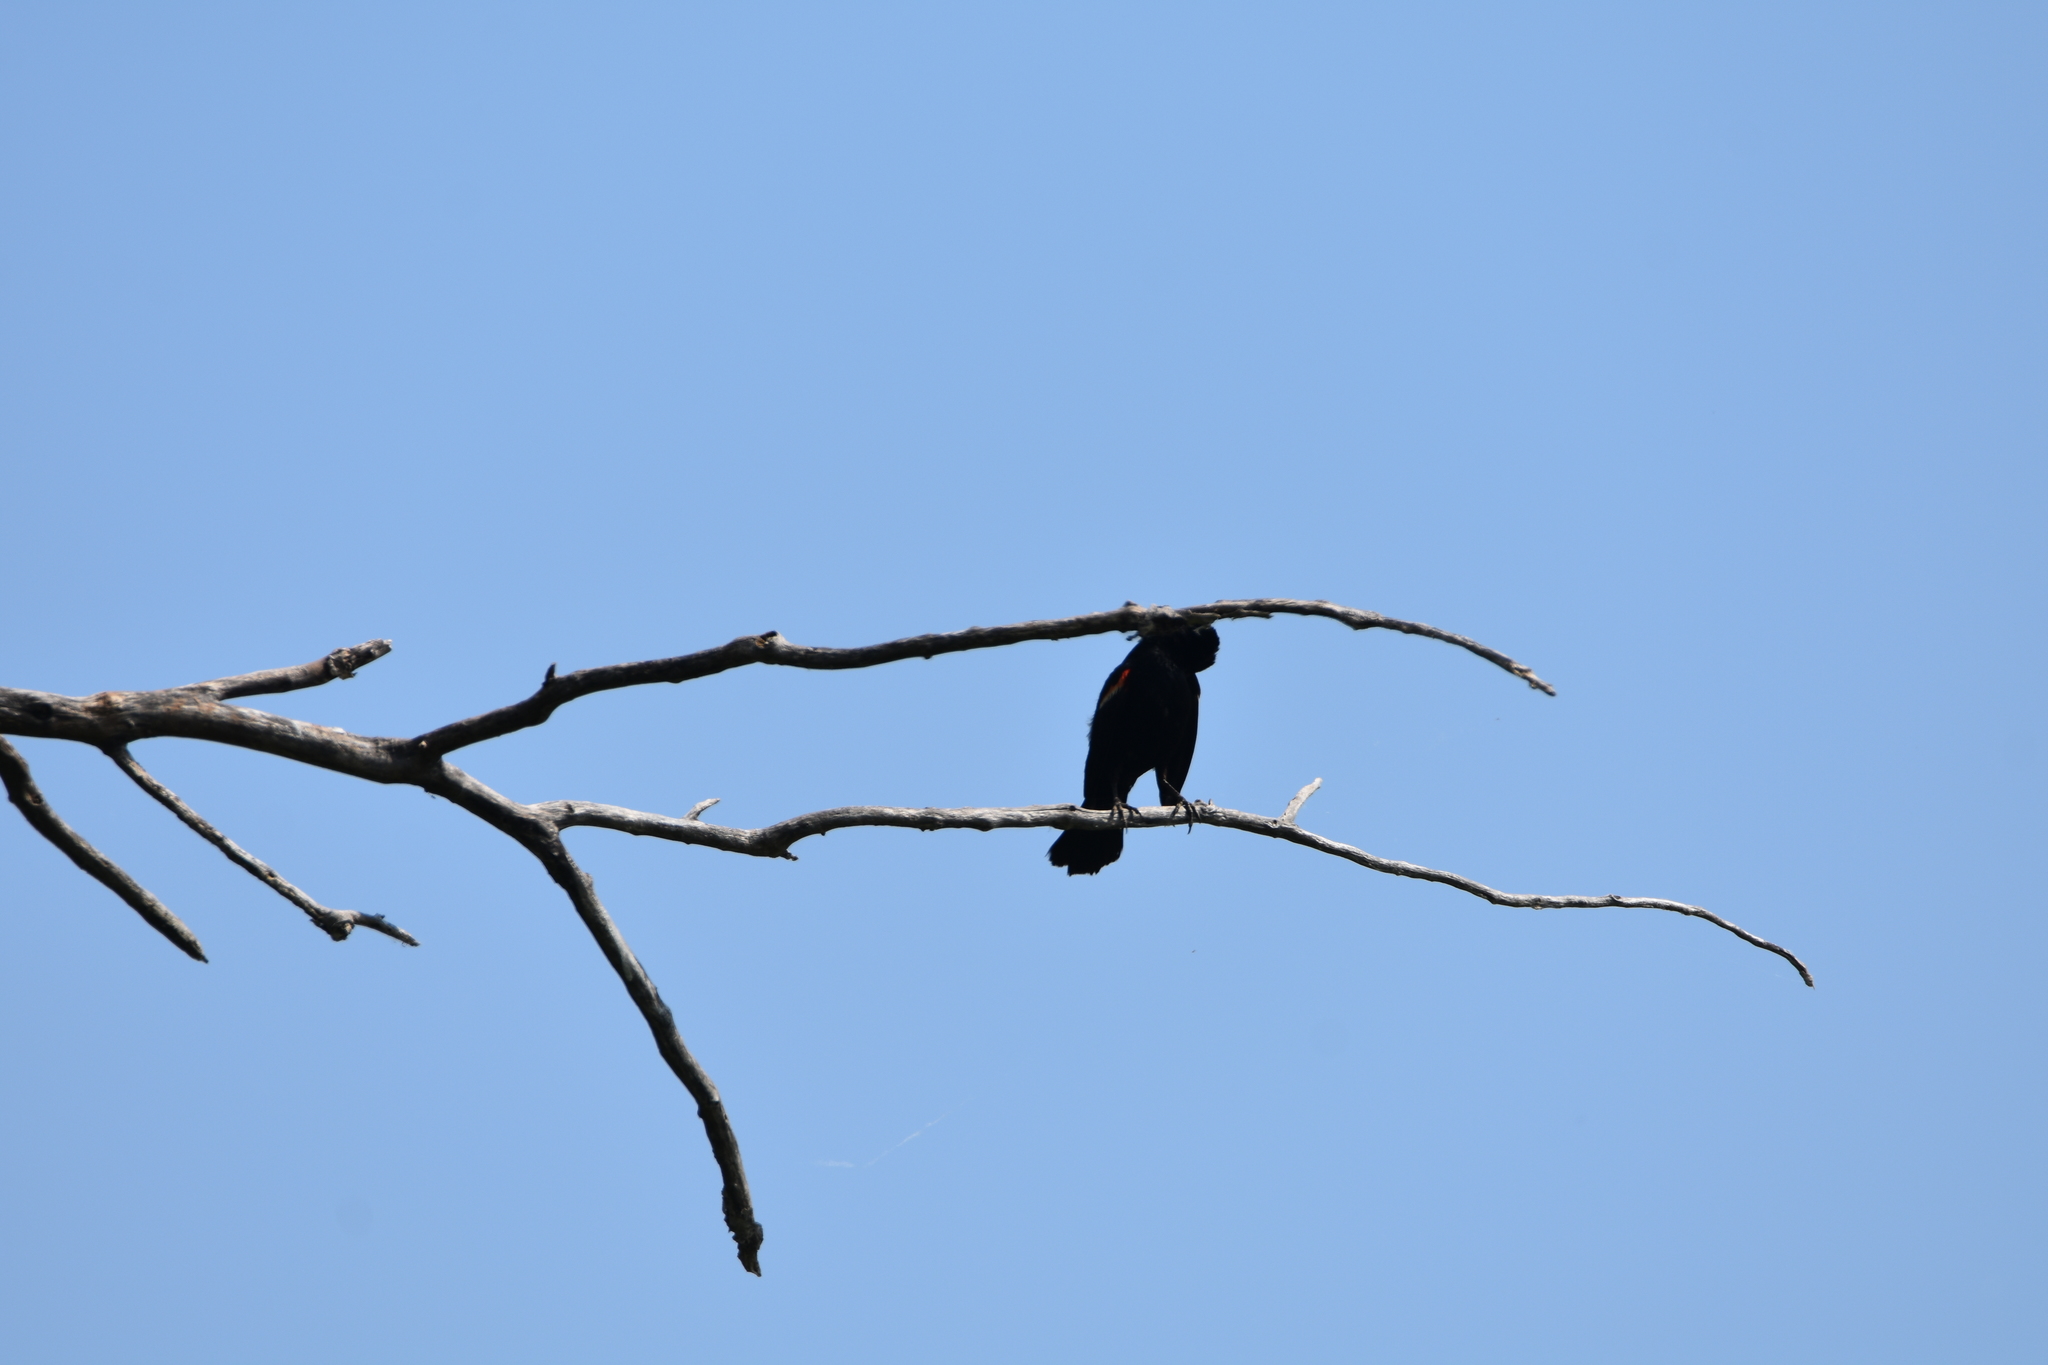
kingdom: Animalia
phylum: Chordata
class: Aves
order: Passeriformes
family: Icteridae
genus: Agelaius
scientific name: Agelaius phoeniceus
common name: Red-winged blackbird
